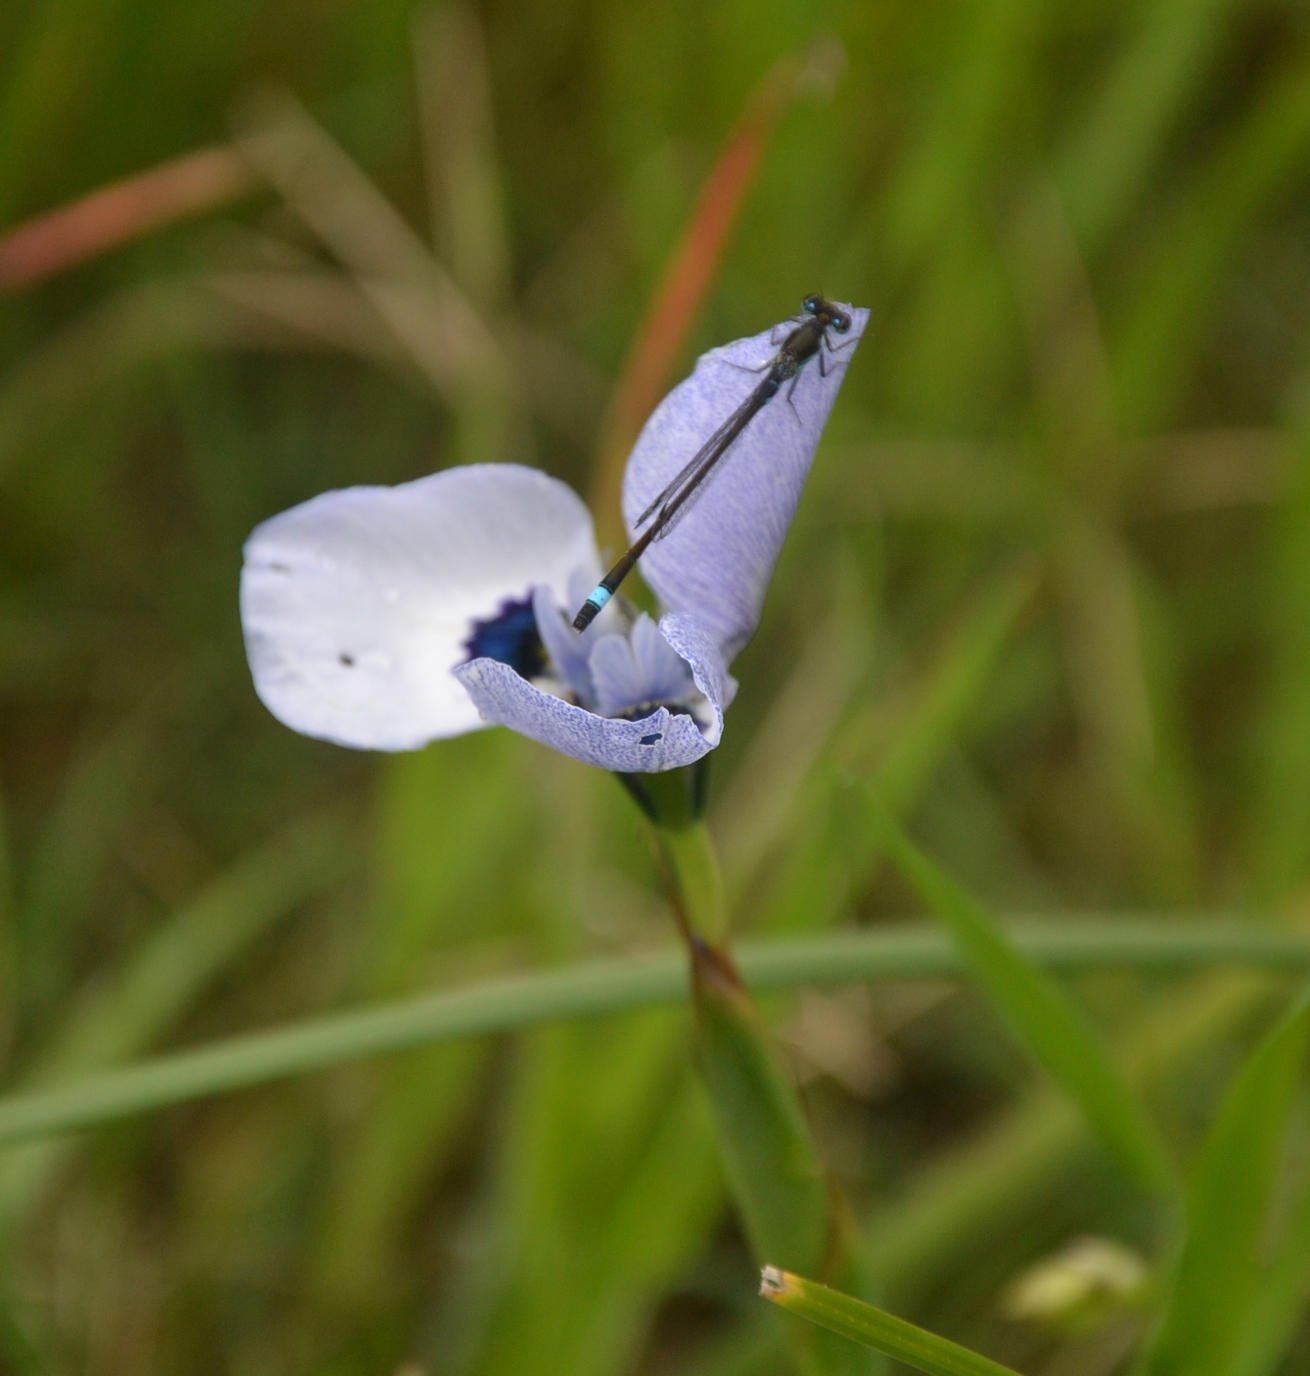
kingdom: Animalia
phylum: Arthropoda
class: Insecta
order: Odonata
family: Coenagrionidae
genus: Ischnura
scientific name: Ischnura senegalensis
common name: Tropical bluetail
